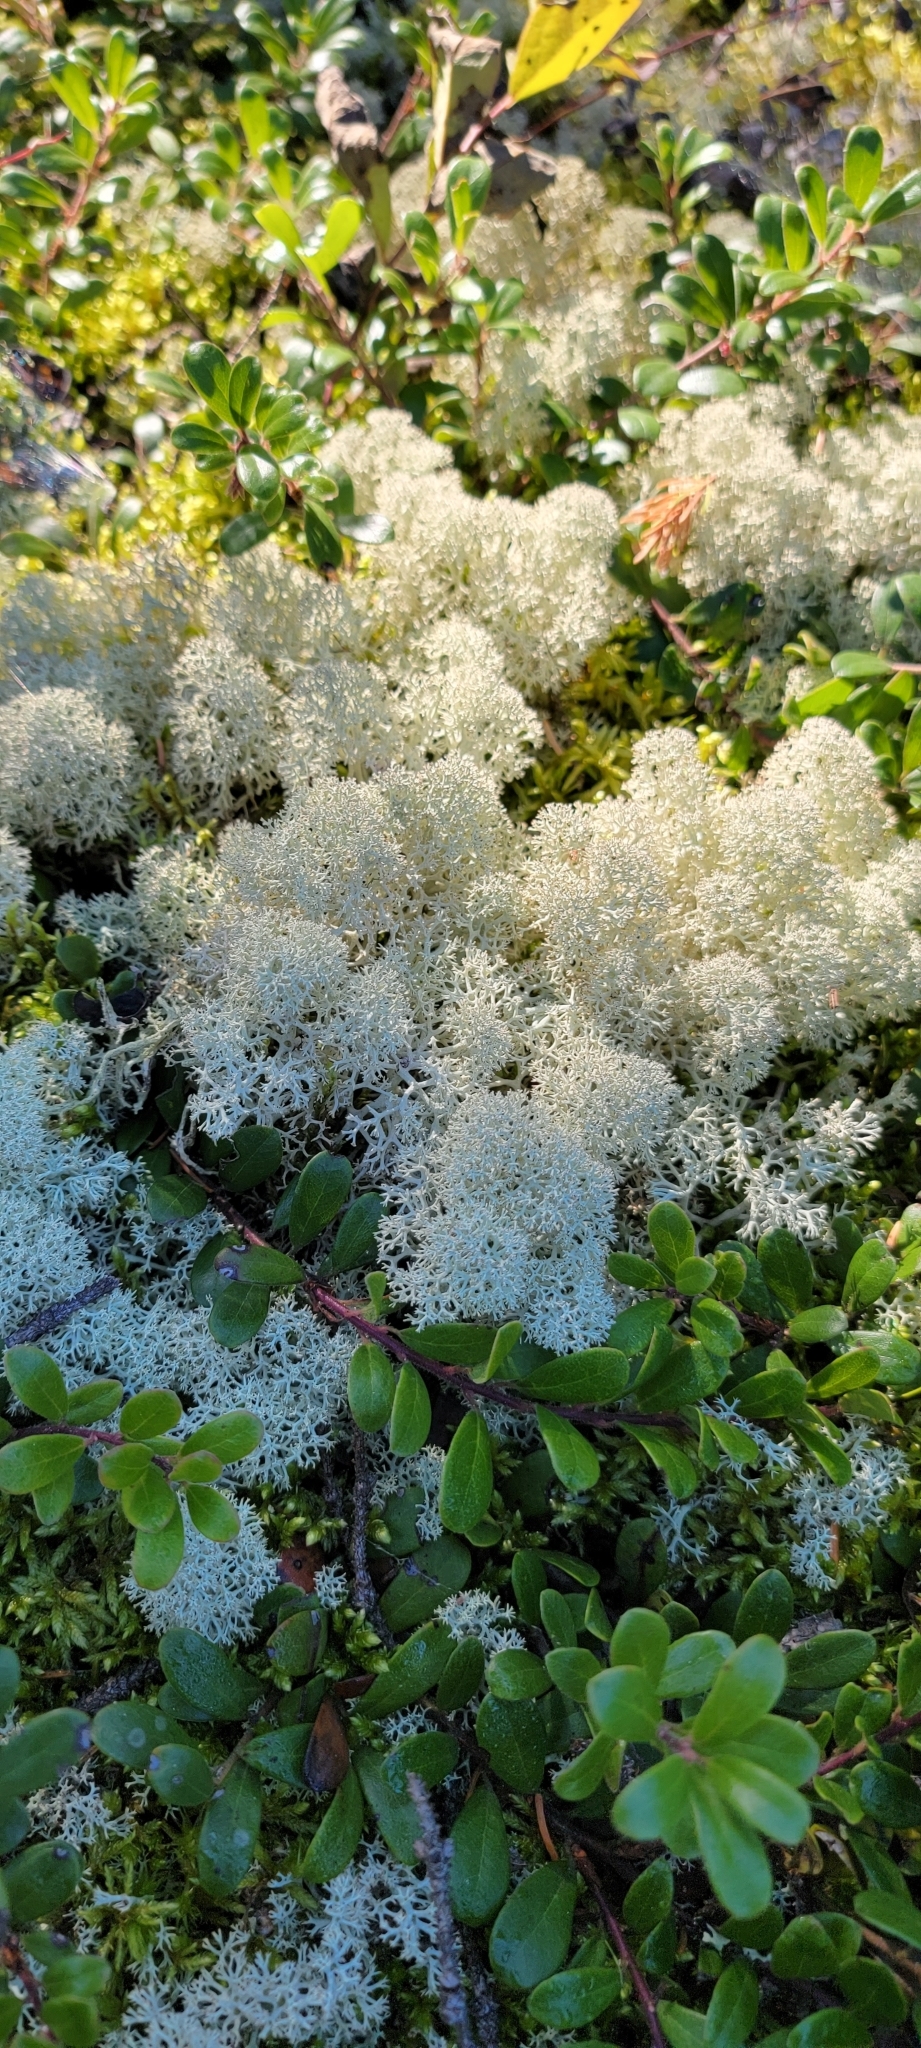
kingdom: Fungi
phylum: Ascomycota
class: Lecanoromycetes
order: Lecanorales
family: Cladoniaceae
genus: Cladonia
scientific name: Cladonia stellaris
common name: Star-tipped reindeer lichen
